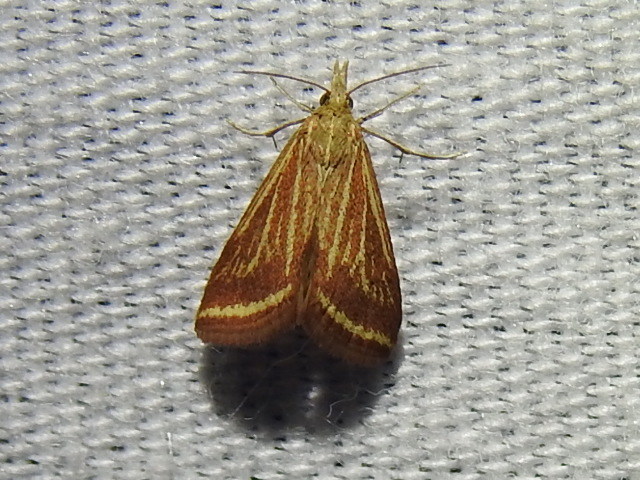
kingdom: Animalia
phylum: Arthropoda
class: Insecta
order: Lepidoptera
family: Crambidae
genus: Microtheoris
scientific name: Microtheoris ophionalis
